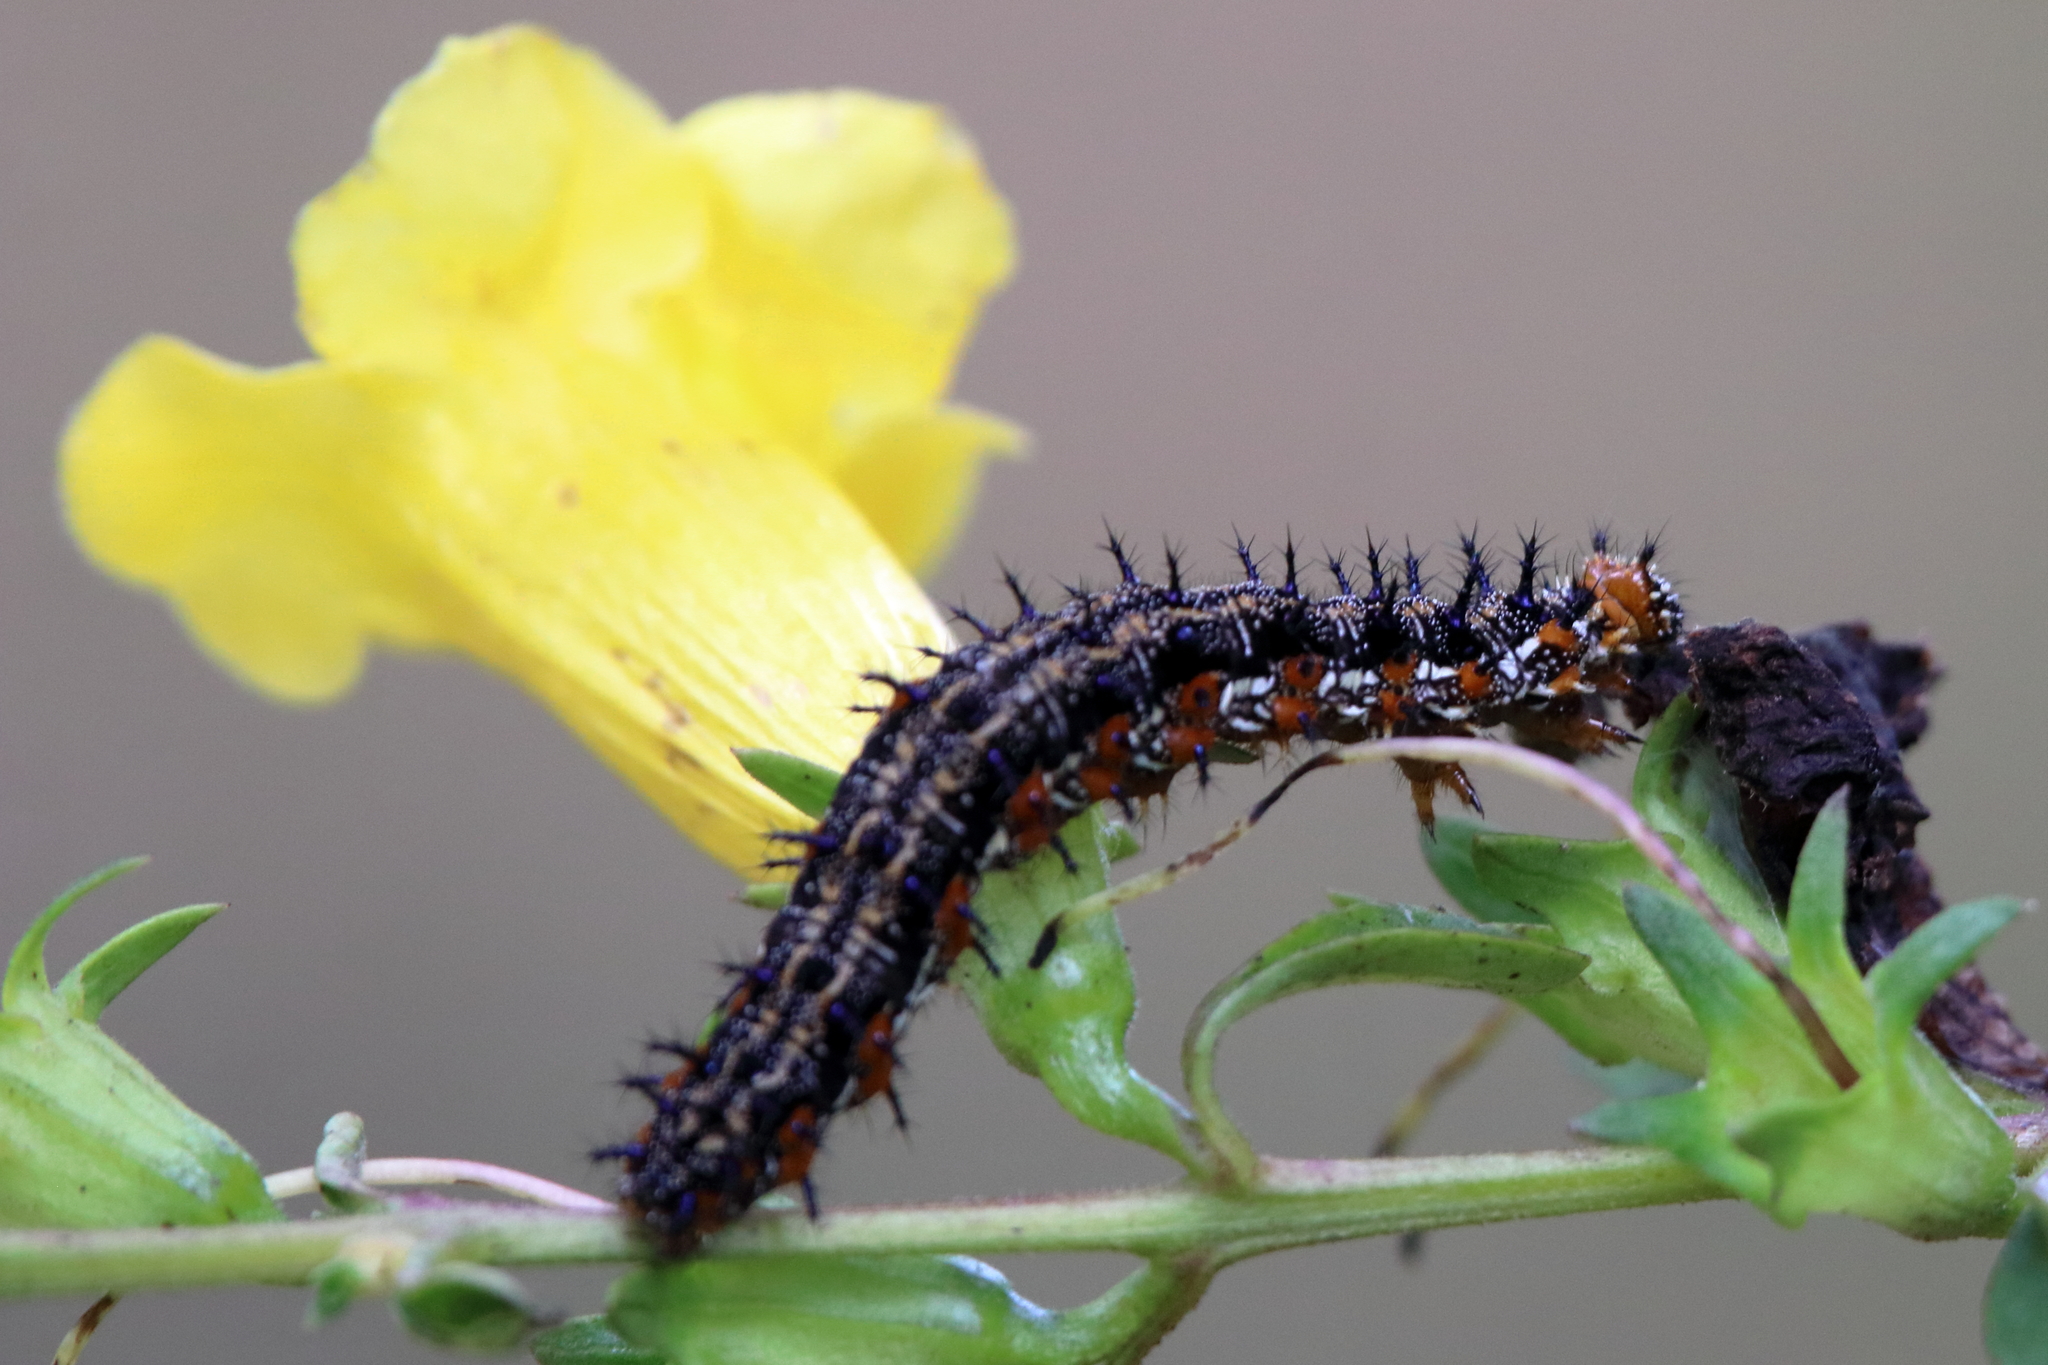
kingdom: Animalia
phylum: Arthropoda
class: Insecta
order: Lepidoptera
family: Nymphalidae
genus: Junonia
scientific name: Junonia coenia
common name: Common buckeye
